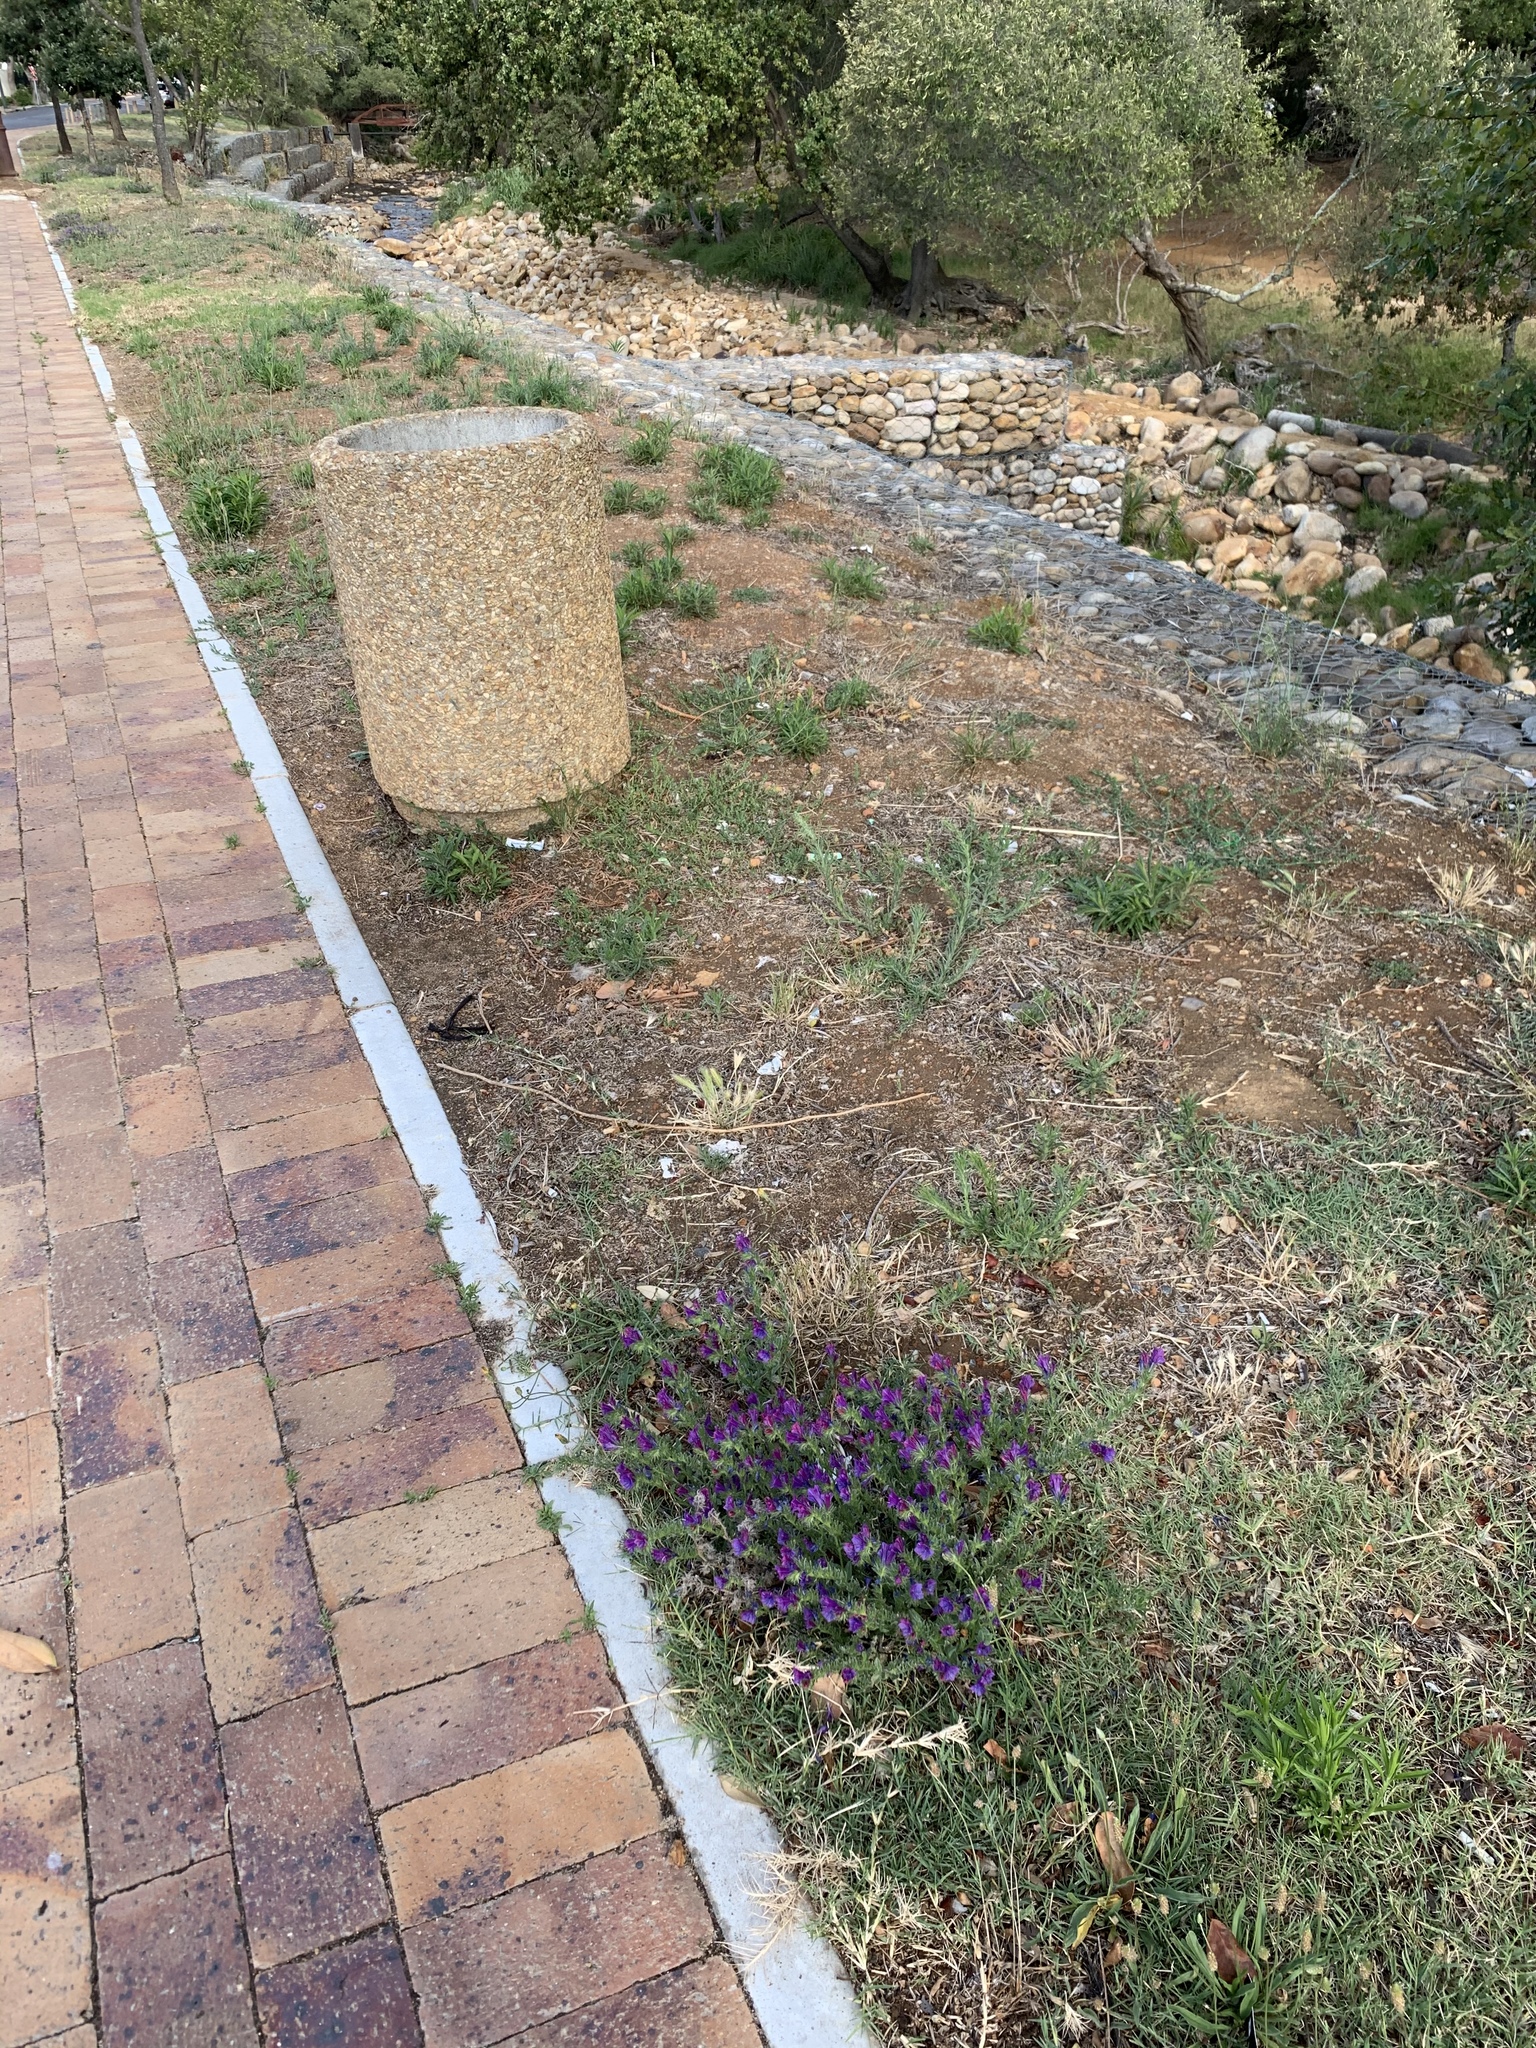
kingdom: Plantae
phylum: Tracheophyta
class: Magnoliopsida
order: Boraginales
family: Boraginaceae
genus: Echium
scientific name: Echium plantagineum
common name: Purple viper's-bugloss
